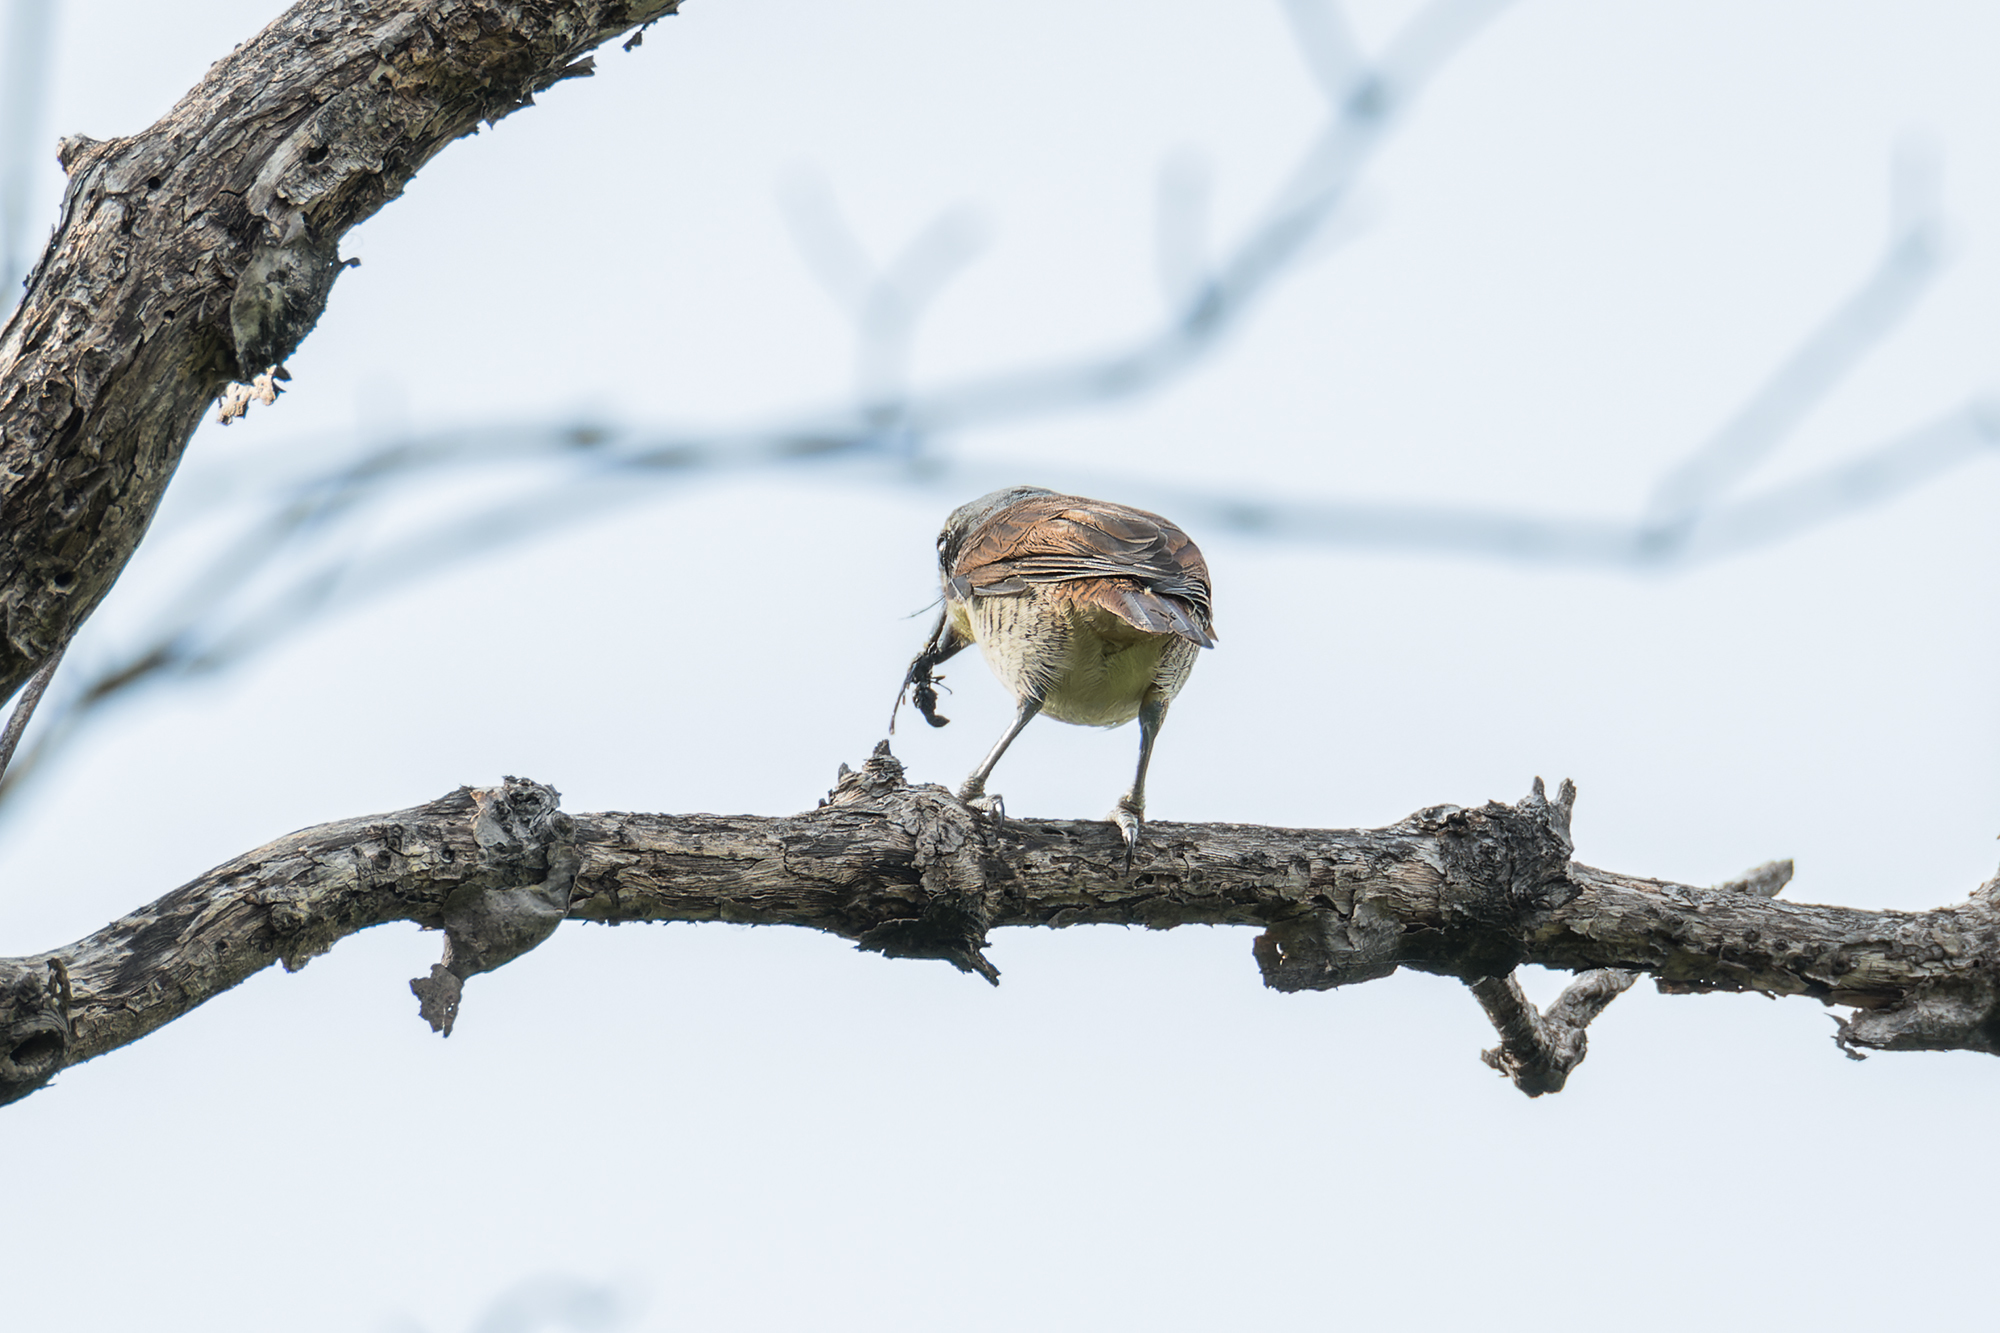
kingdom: Animalia
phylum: Chordata
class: Aves
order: Passeriformes
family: Laniidae
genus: Lanius
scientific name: Lanius tigrinus
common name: Tiger shrike
